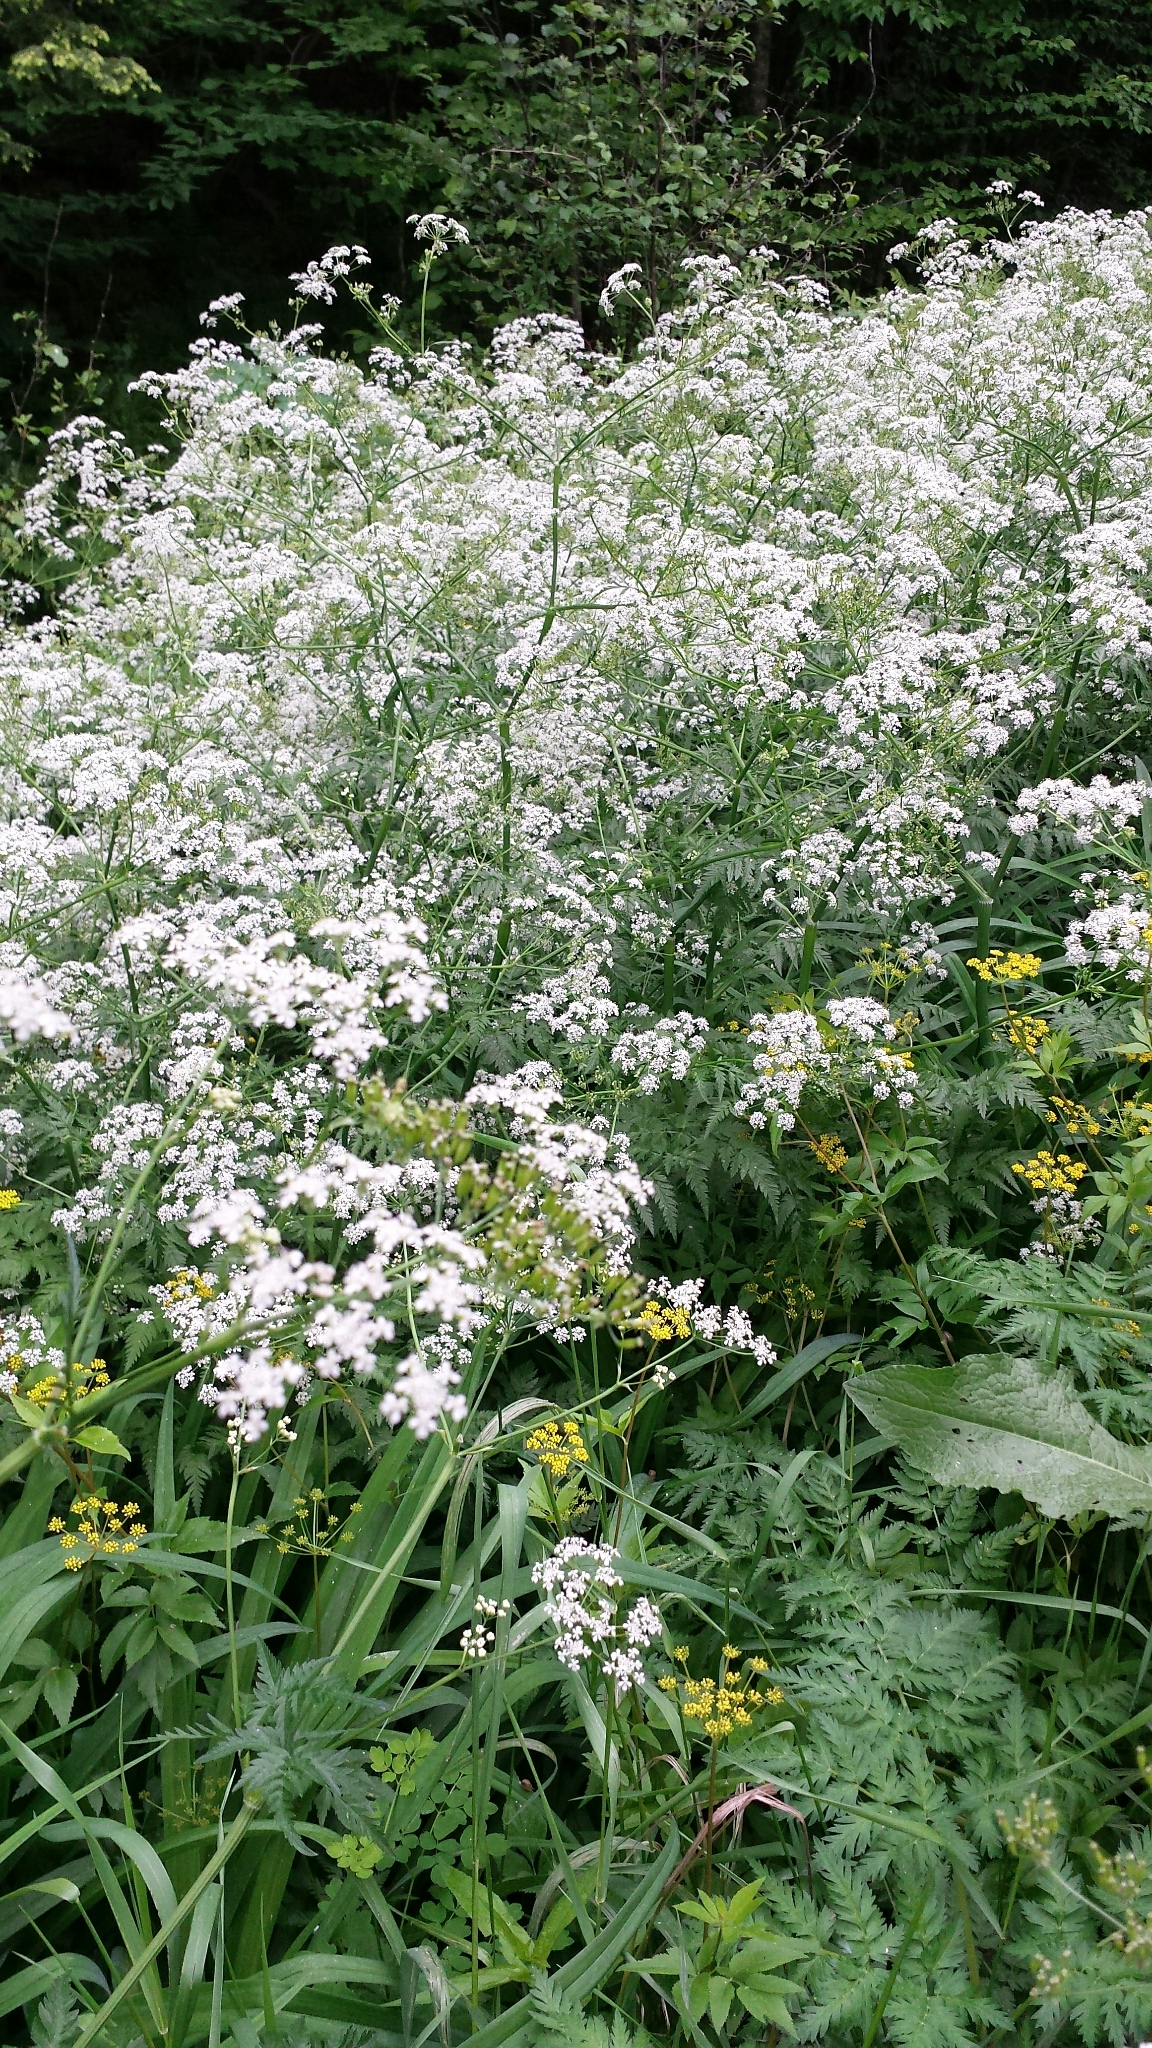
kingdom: Plantae
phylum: Tracheophyta
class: Magnoliopsida
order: Apiales
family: Apiaceae
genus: Anthriscus
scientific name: Anthriscus sylvestris
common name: Cow parsley
